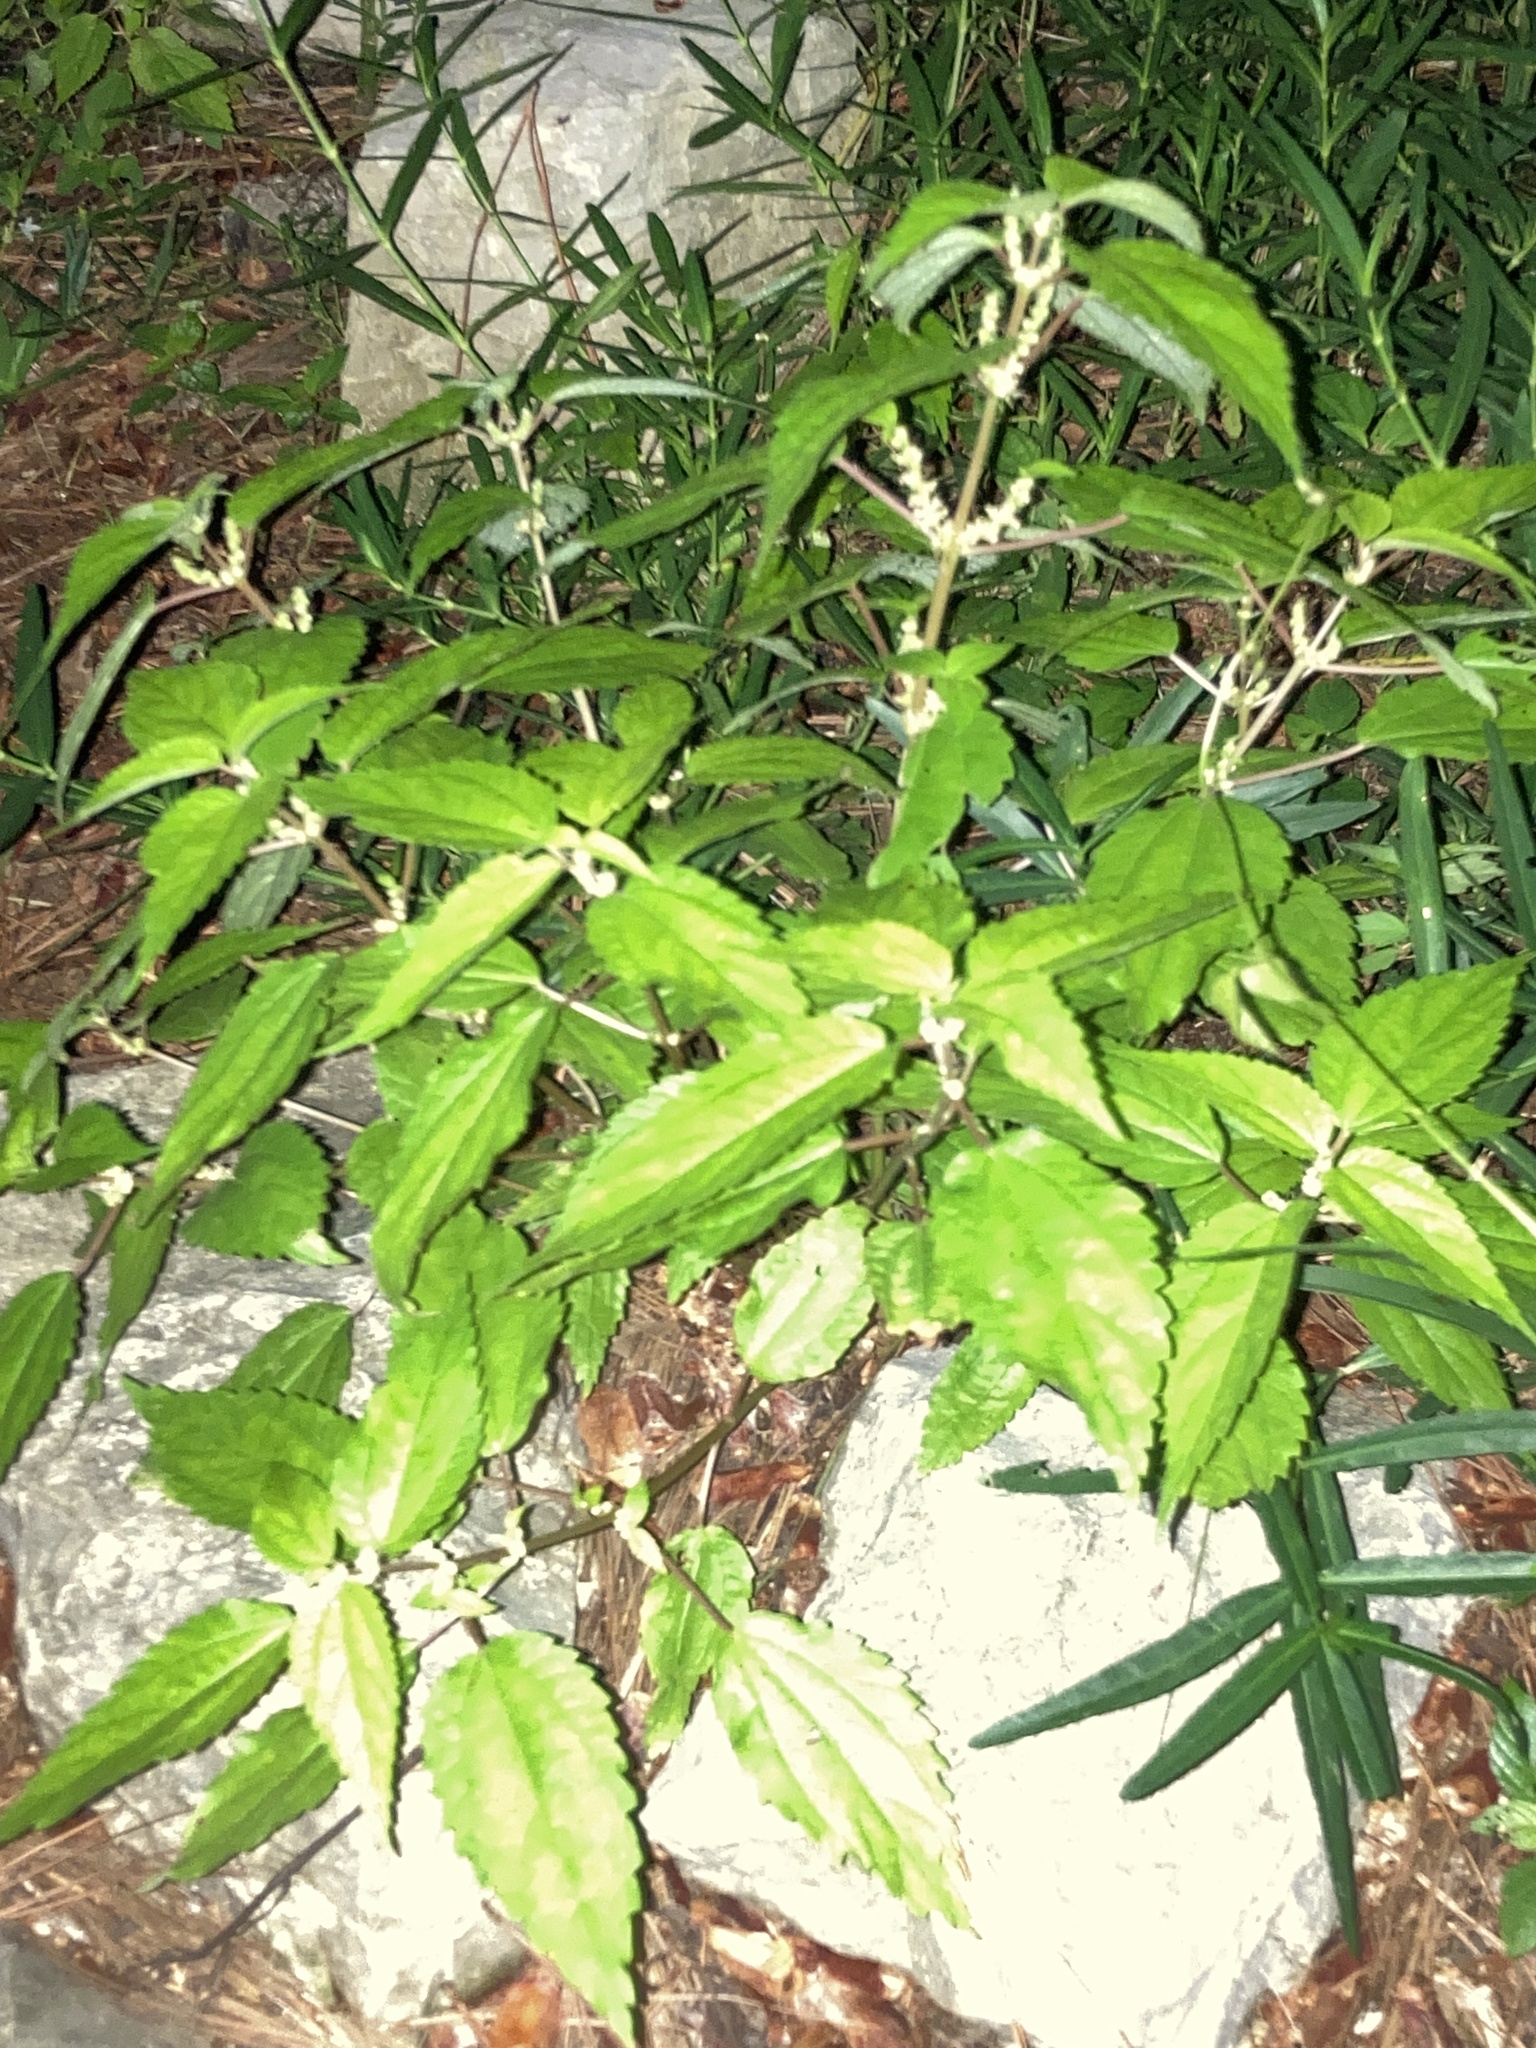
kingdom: Plantae
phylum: Tracheophyta
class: Magnoliopsida
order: Rosales
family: Urticaceae
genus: Boehmeria
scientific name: Boehmeria cylindrica
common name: Bog-hemp
